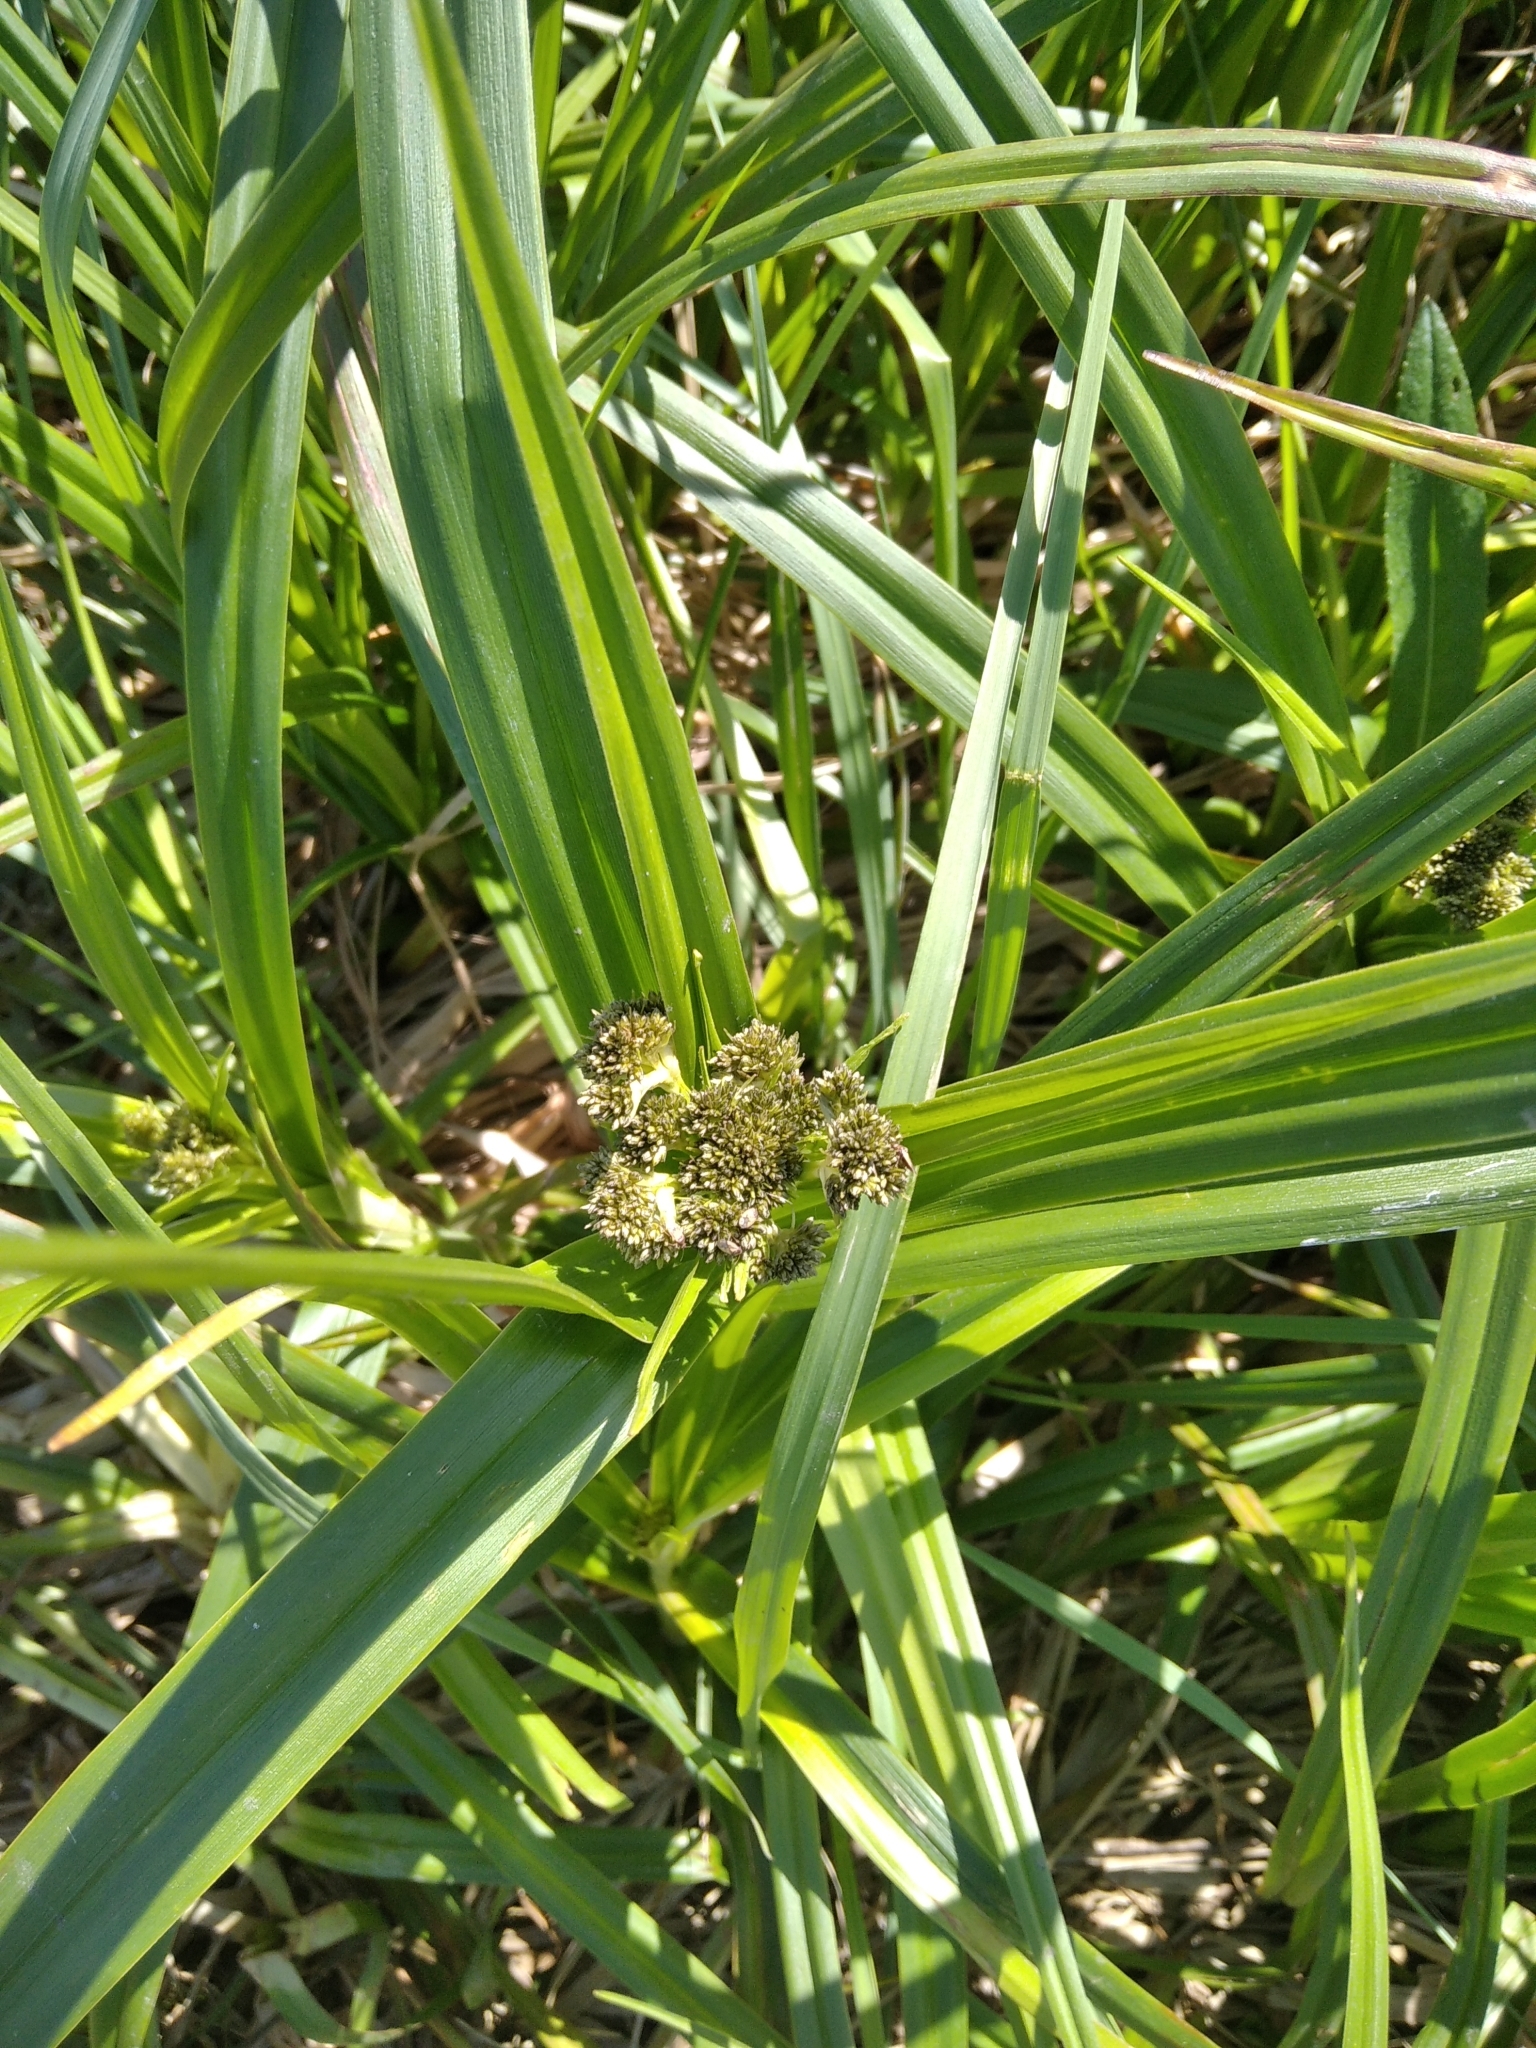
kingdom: Plantae
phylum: Tracheophyta
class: Liliopsida
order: Poales
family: Cyperaceae
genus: Scirpus
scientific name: Scirpus sylvaticus
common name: Wood club-rush
